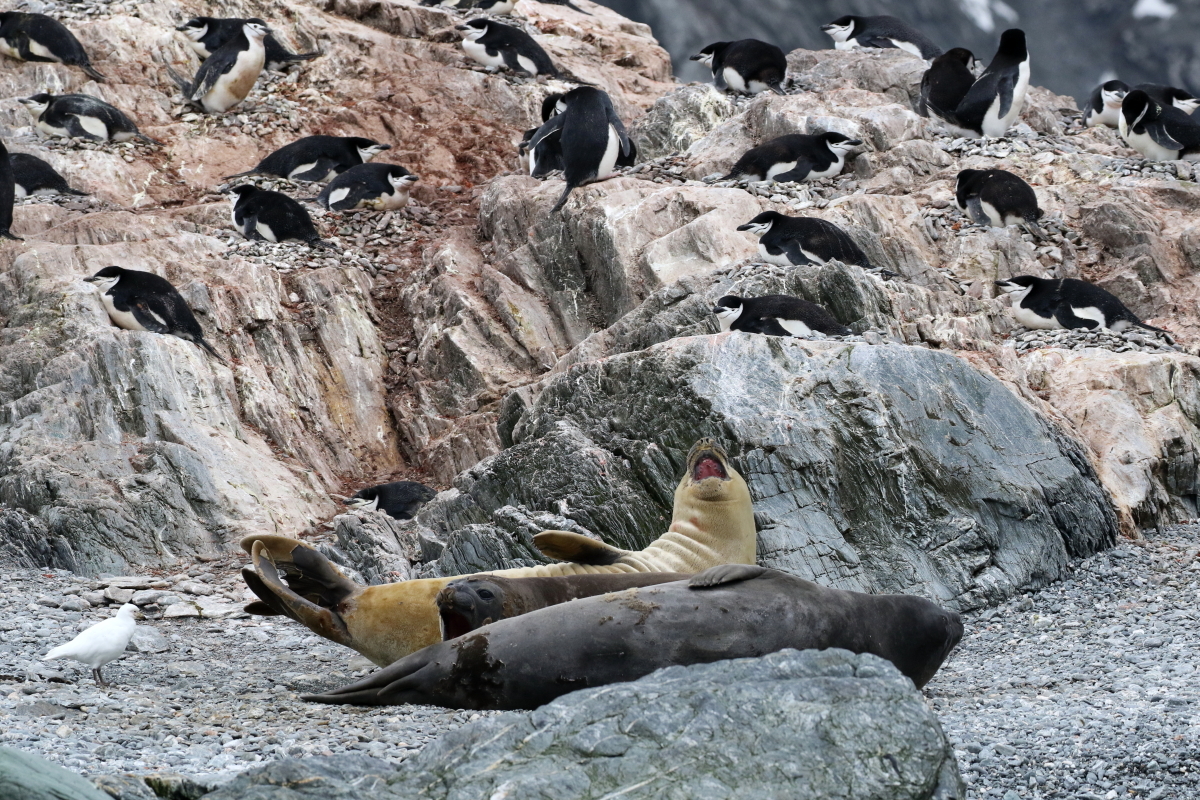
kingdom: Animalia
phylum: Chordata
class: Mammalia
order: Carnivora
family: Phocidae
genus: Mirounga
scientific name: Mirounga leonina
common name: Southern elephant seal
